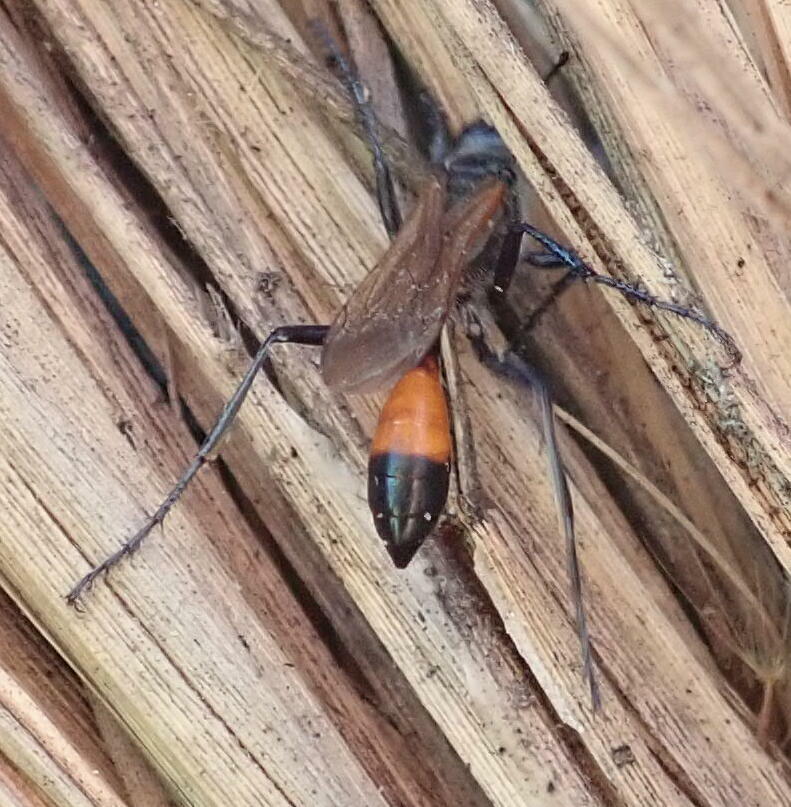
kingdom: Animalia
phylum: Arthropoda
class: Insecta
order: Hymenoptera
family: Sphecidae
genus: Podalonia
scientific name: Podalonia tydei
